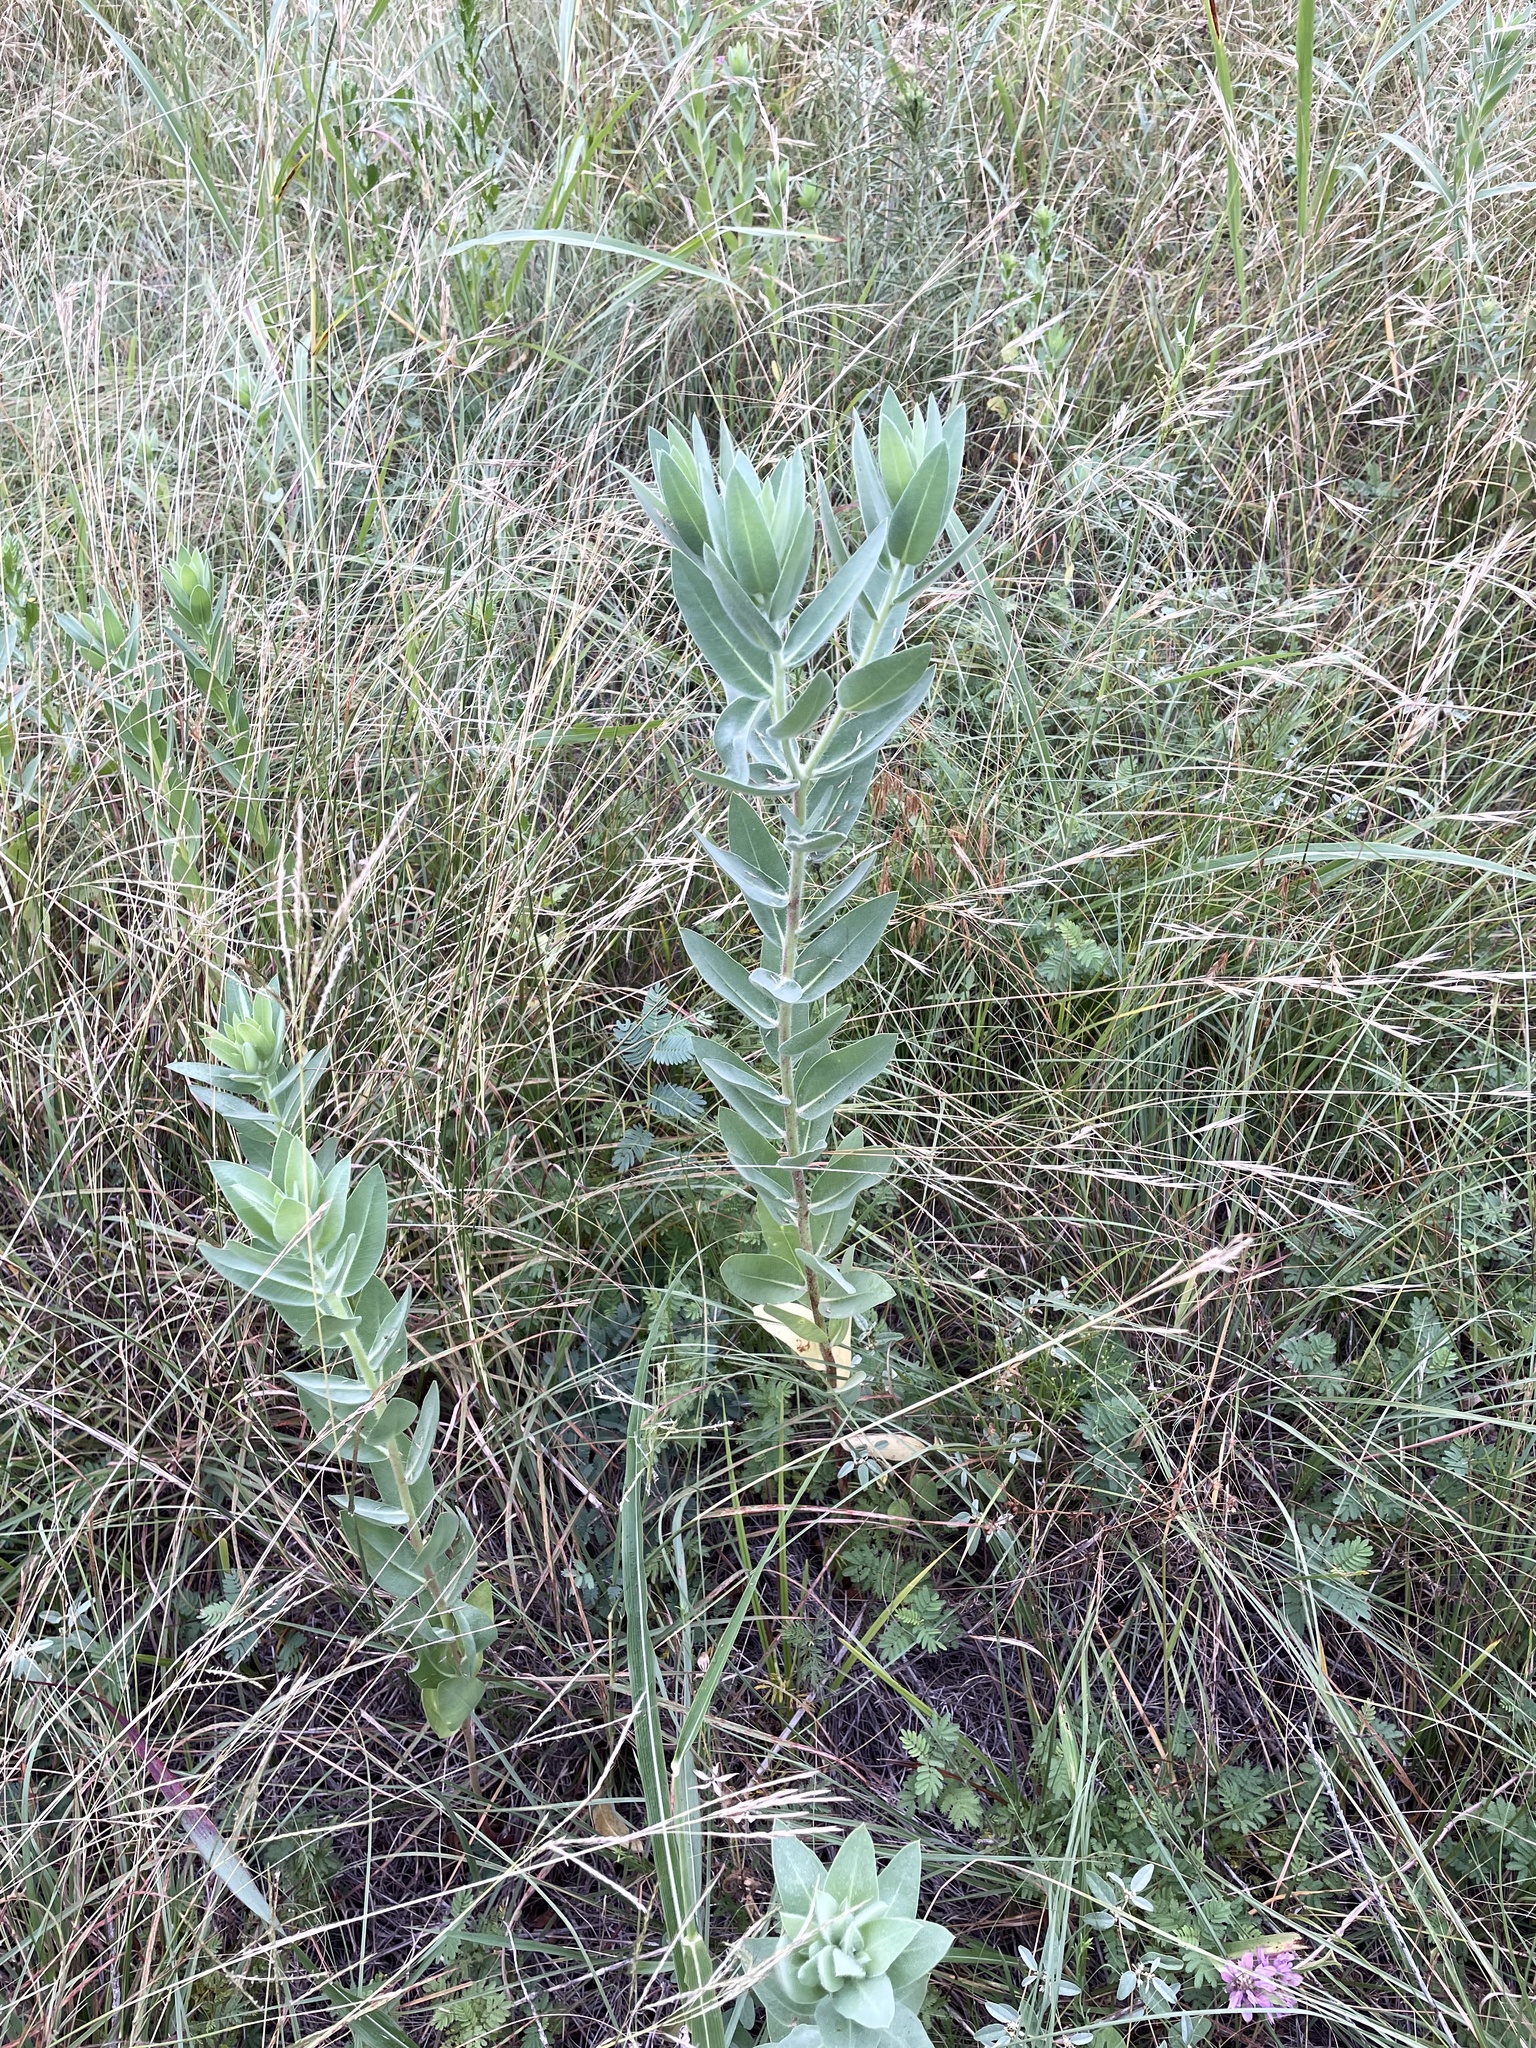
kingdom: Plantae
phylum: Tracheophyta
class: Magnoliopsida
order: Malpighiales
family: Euphorbiaceae
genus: Euphorbia
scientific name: Euphorbia bicolor
